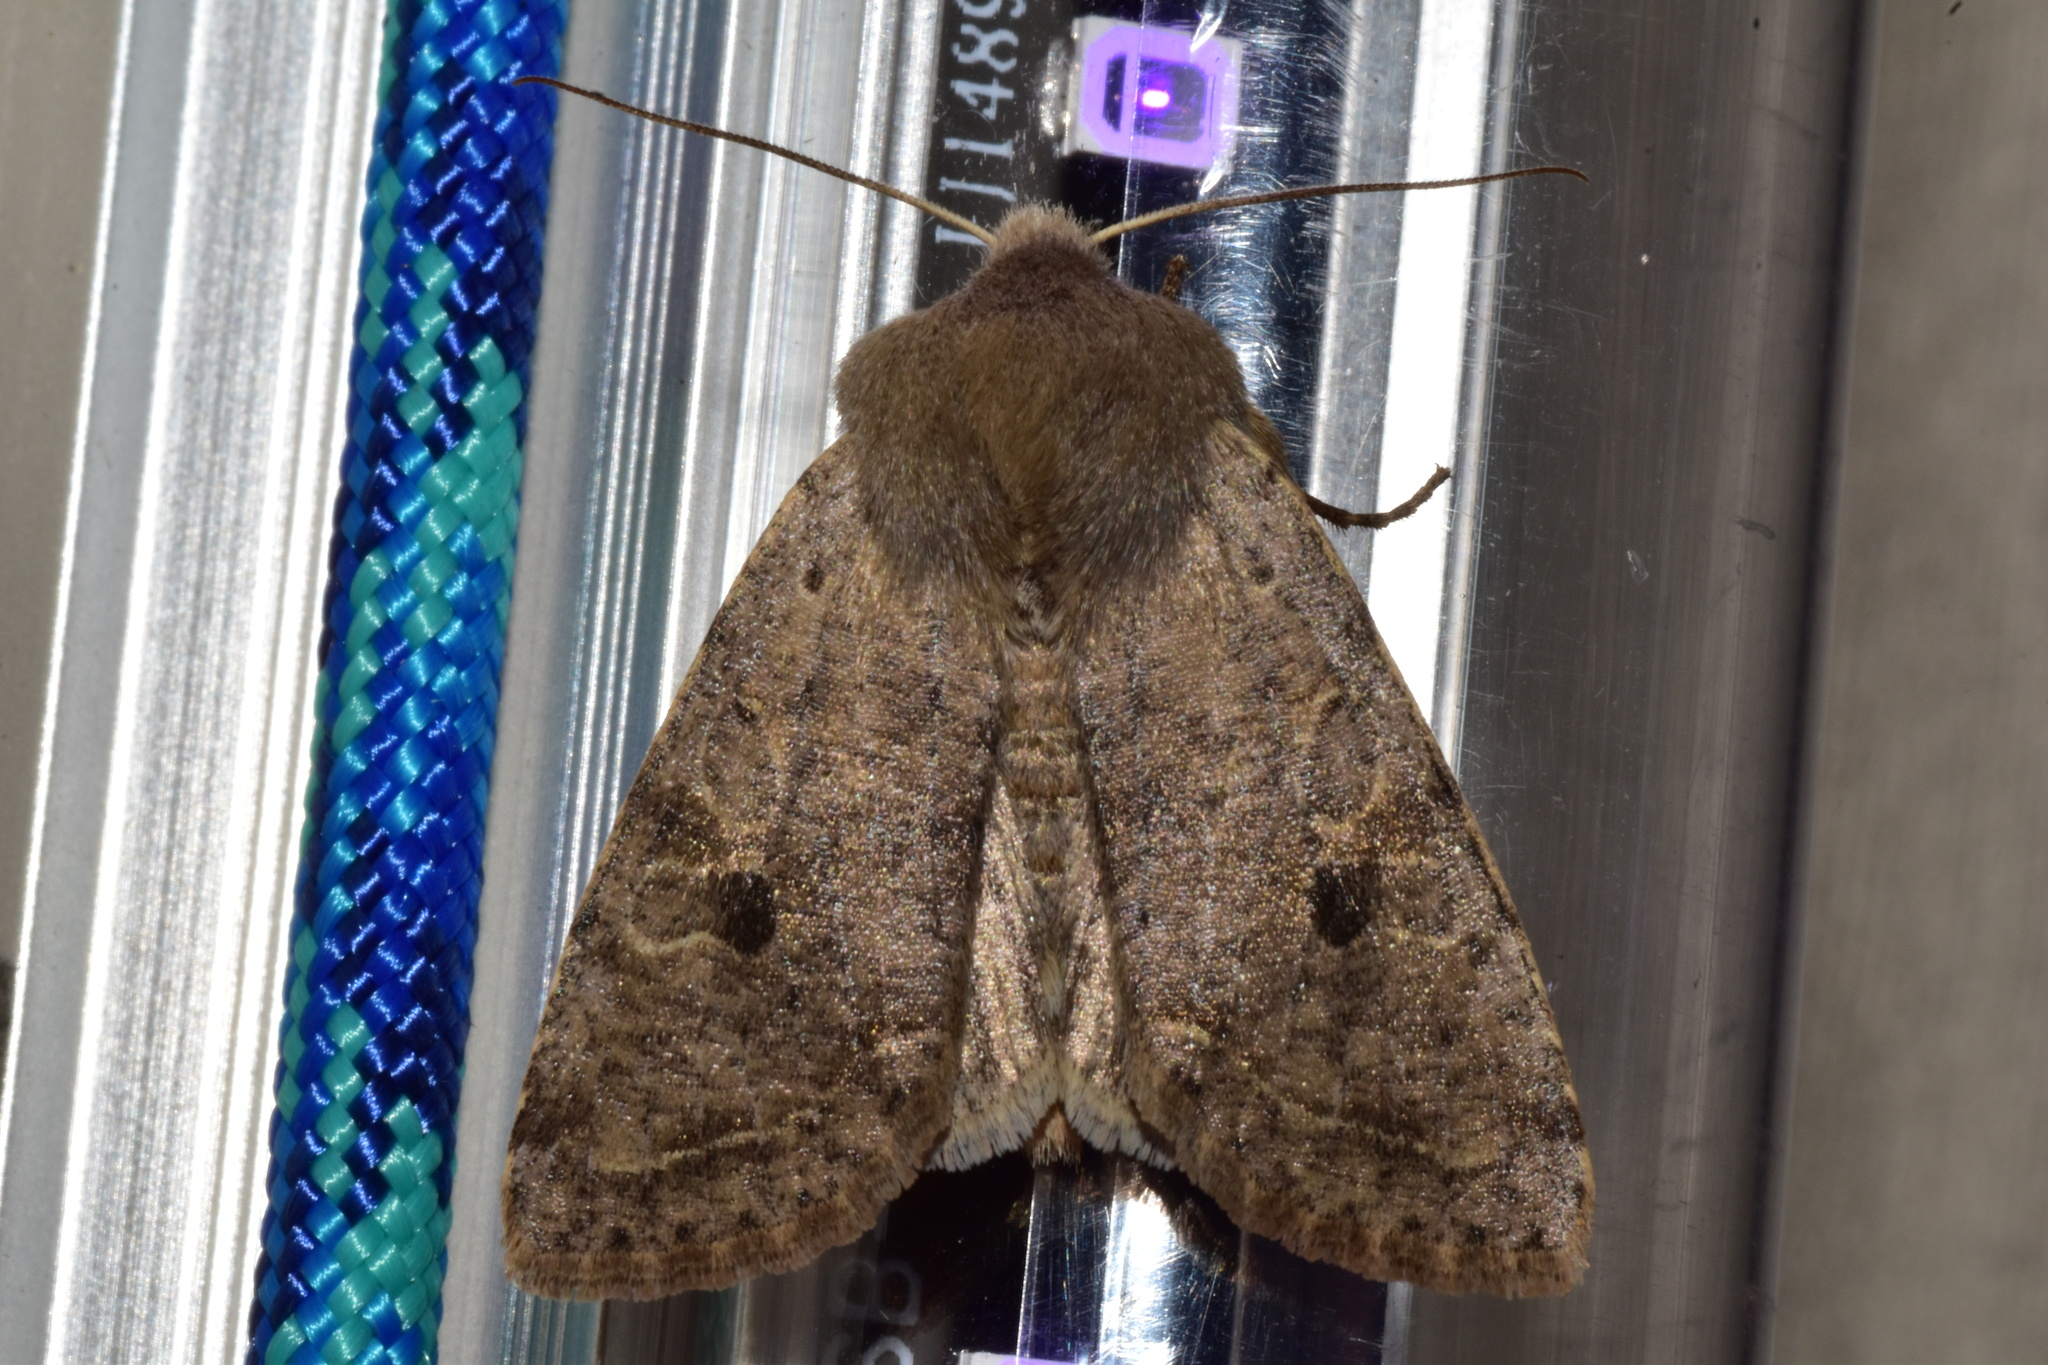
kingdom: Animalia
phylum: Arthropoda
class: Insecta
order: Lepidoptera
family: Noctuidae
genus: Orthosia
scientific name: Orthosia hibisci
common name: Green fruitworm
